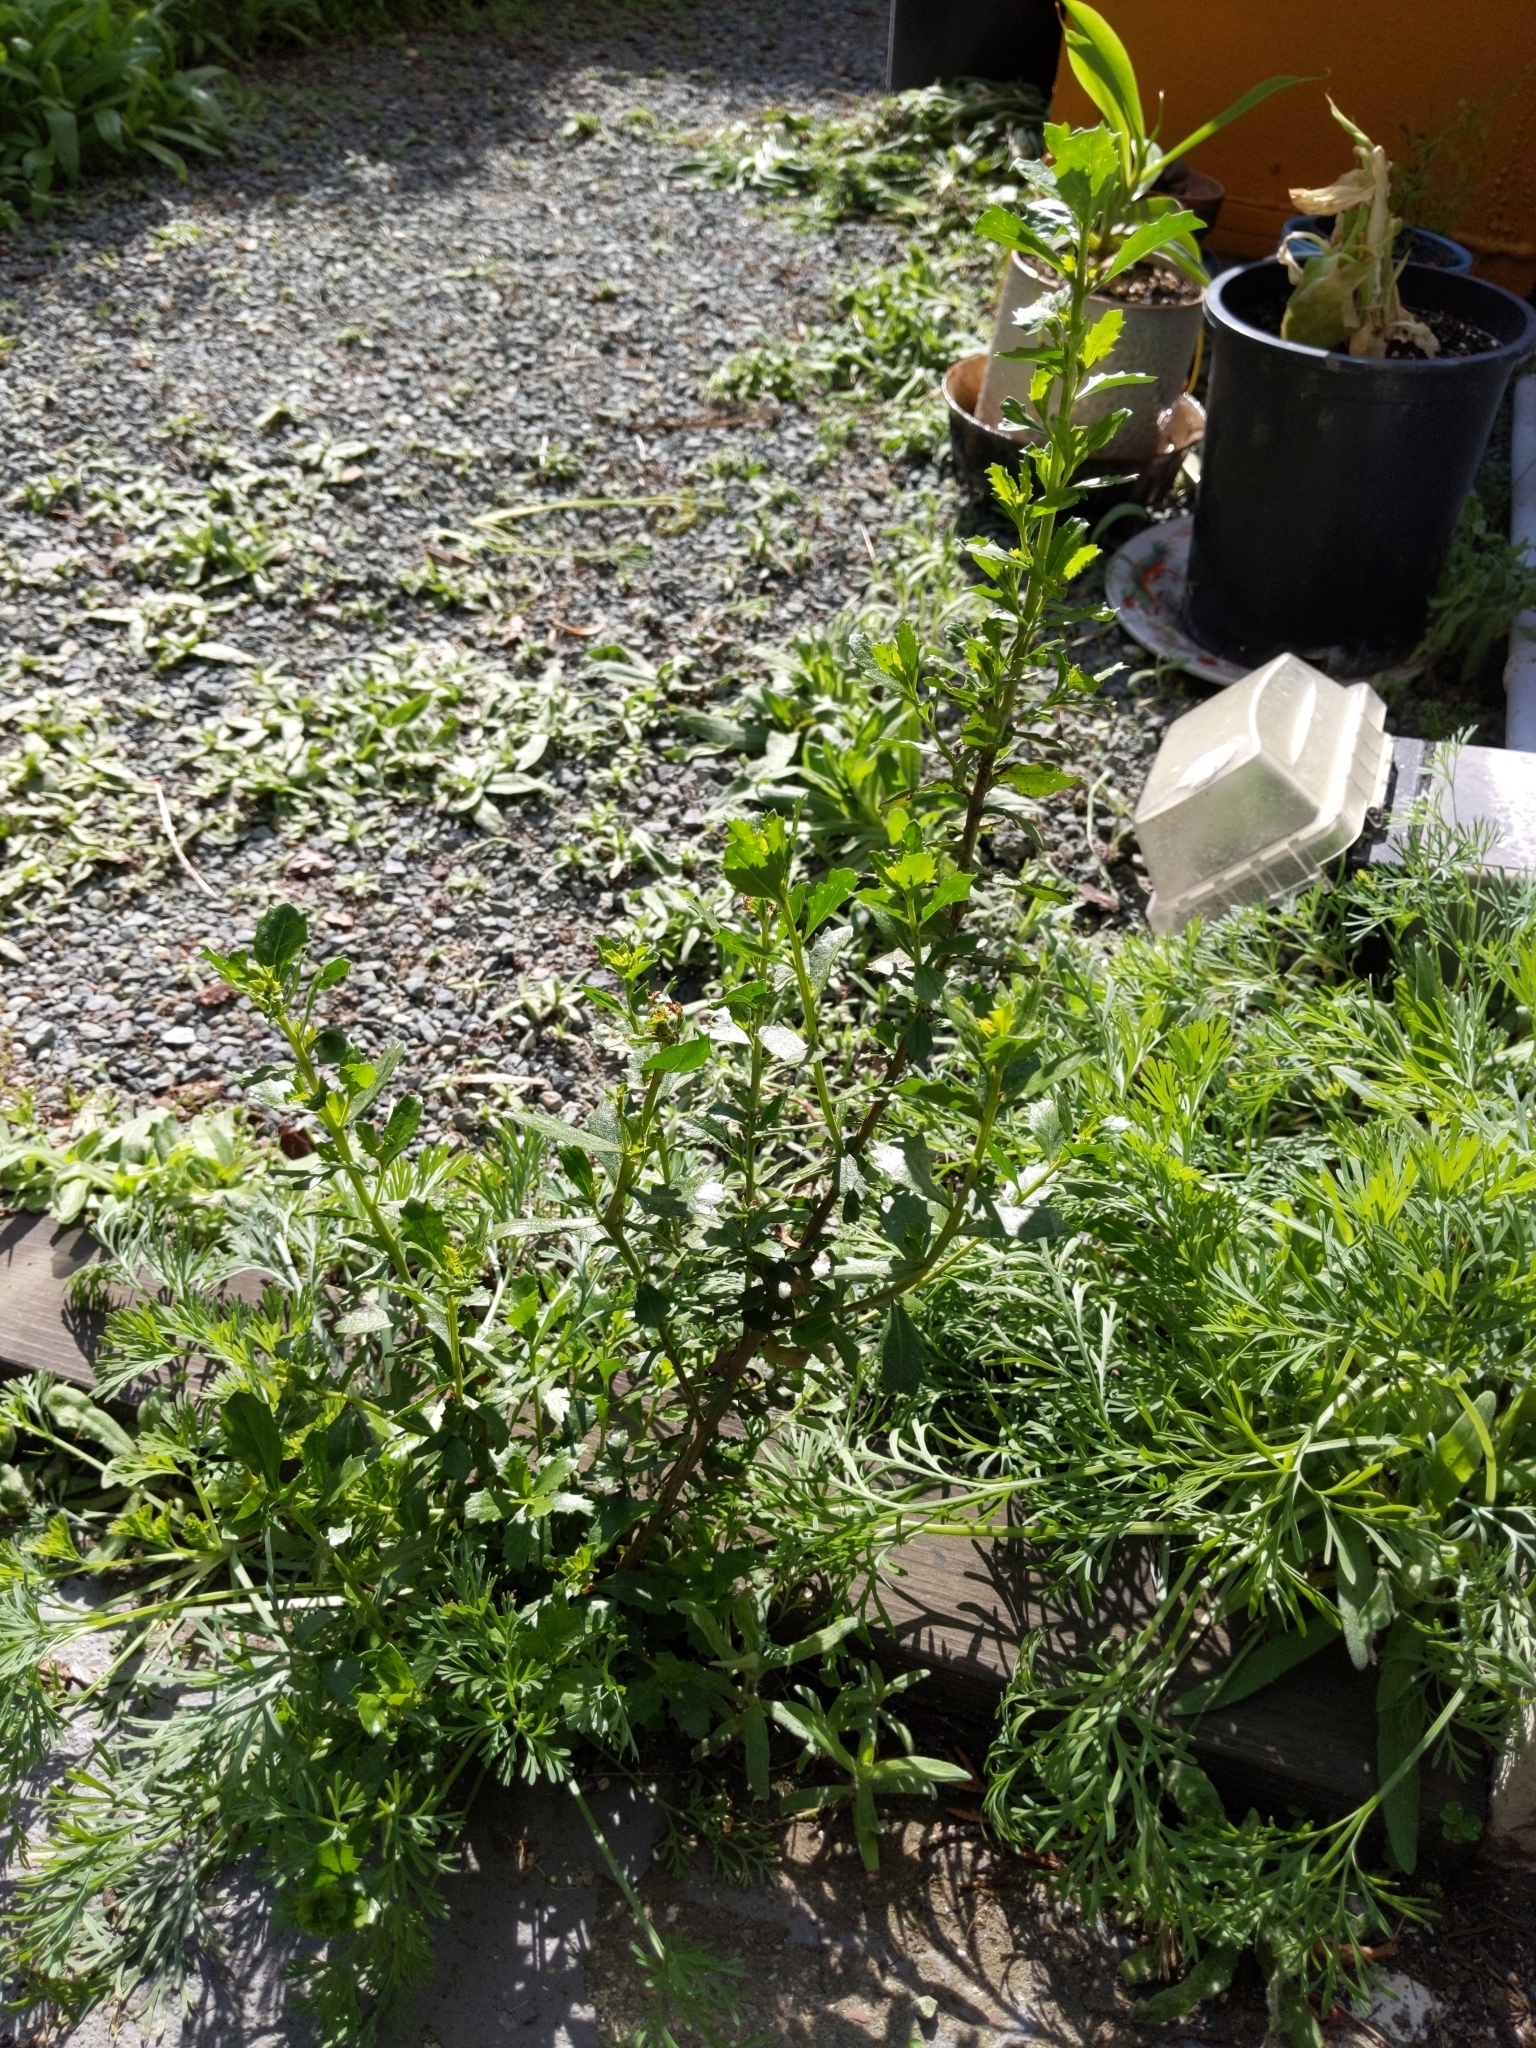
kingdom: Plantae
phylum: Tracheophyta
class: Magnoliopsida
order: Asterales
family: Asteraceae
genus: Baccharis
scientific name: Baccharis pilularis
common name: Coyotebrush
